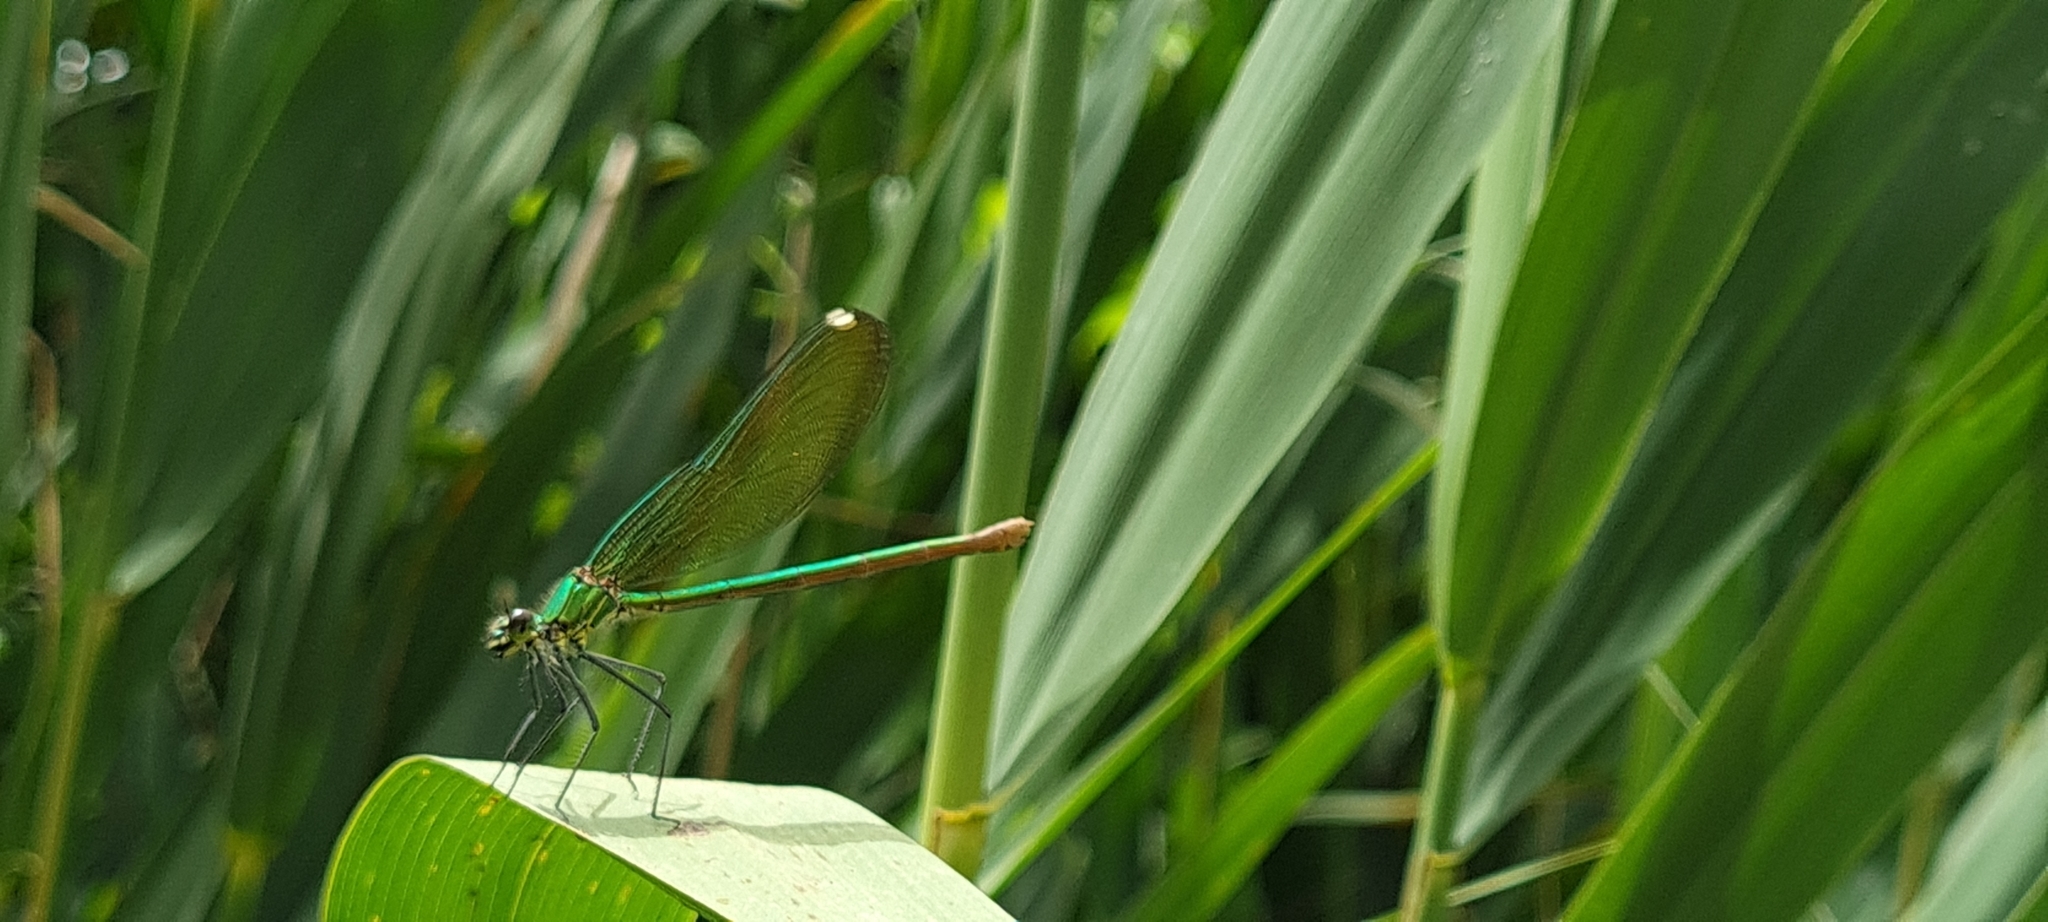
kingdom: Animalia
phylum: Arthropoda
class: Insecta
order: Odonata
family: Calopterygidae
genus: Calopteryx
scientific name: Calopteryx xanthostoma
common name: Western demoiselle
